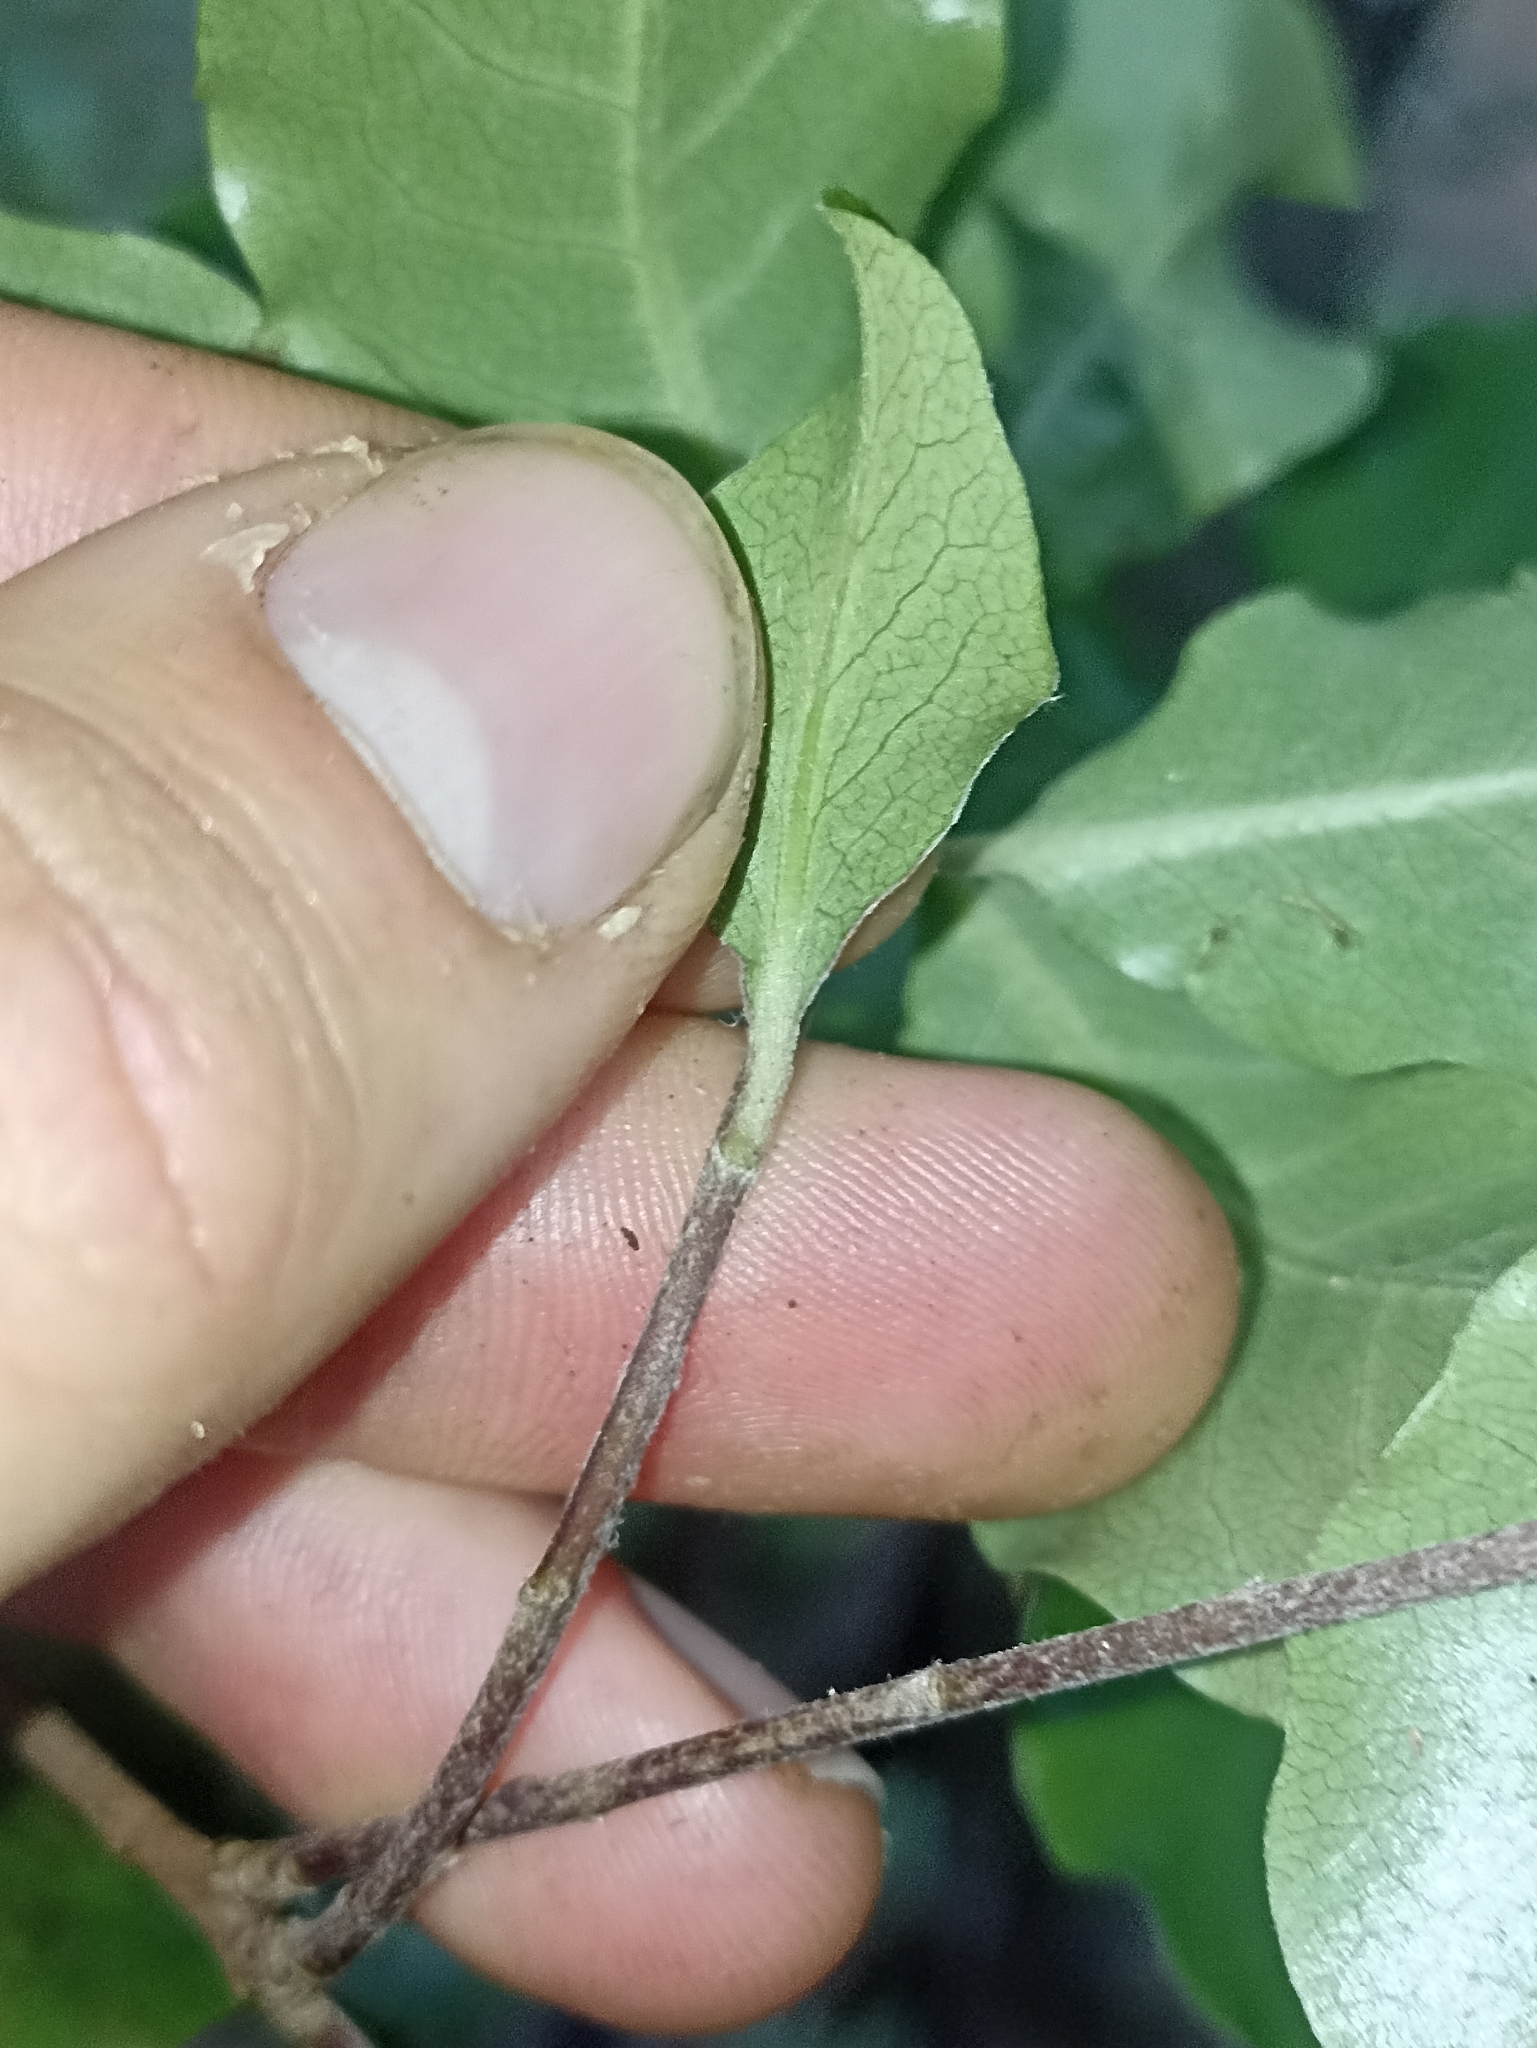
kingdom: Plantae
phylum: Tracheophyta
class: Magnoliopsida
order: Apiales
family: Pittosporaceae
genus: Pittosporum
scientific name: Pittosporum huttonianum
